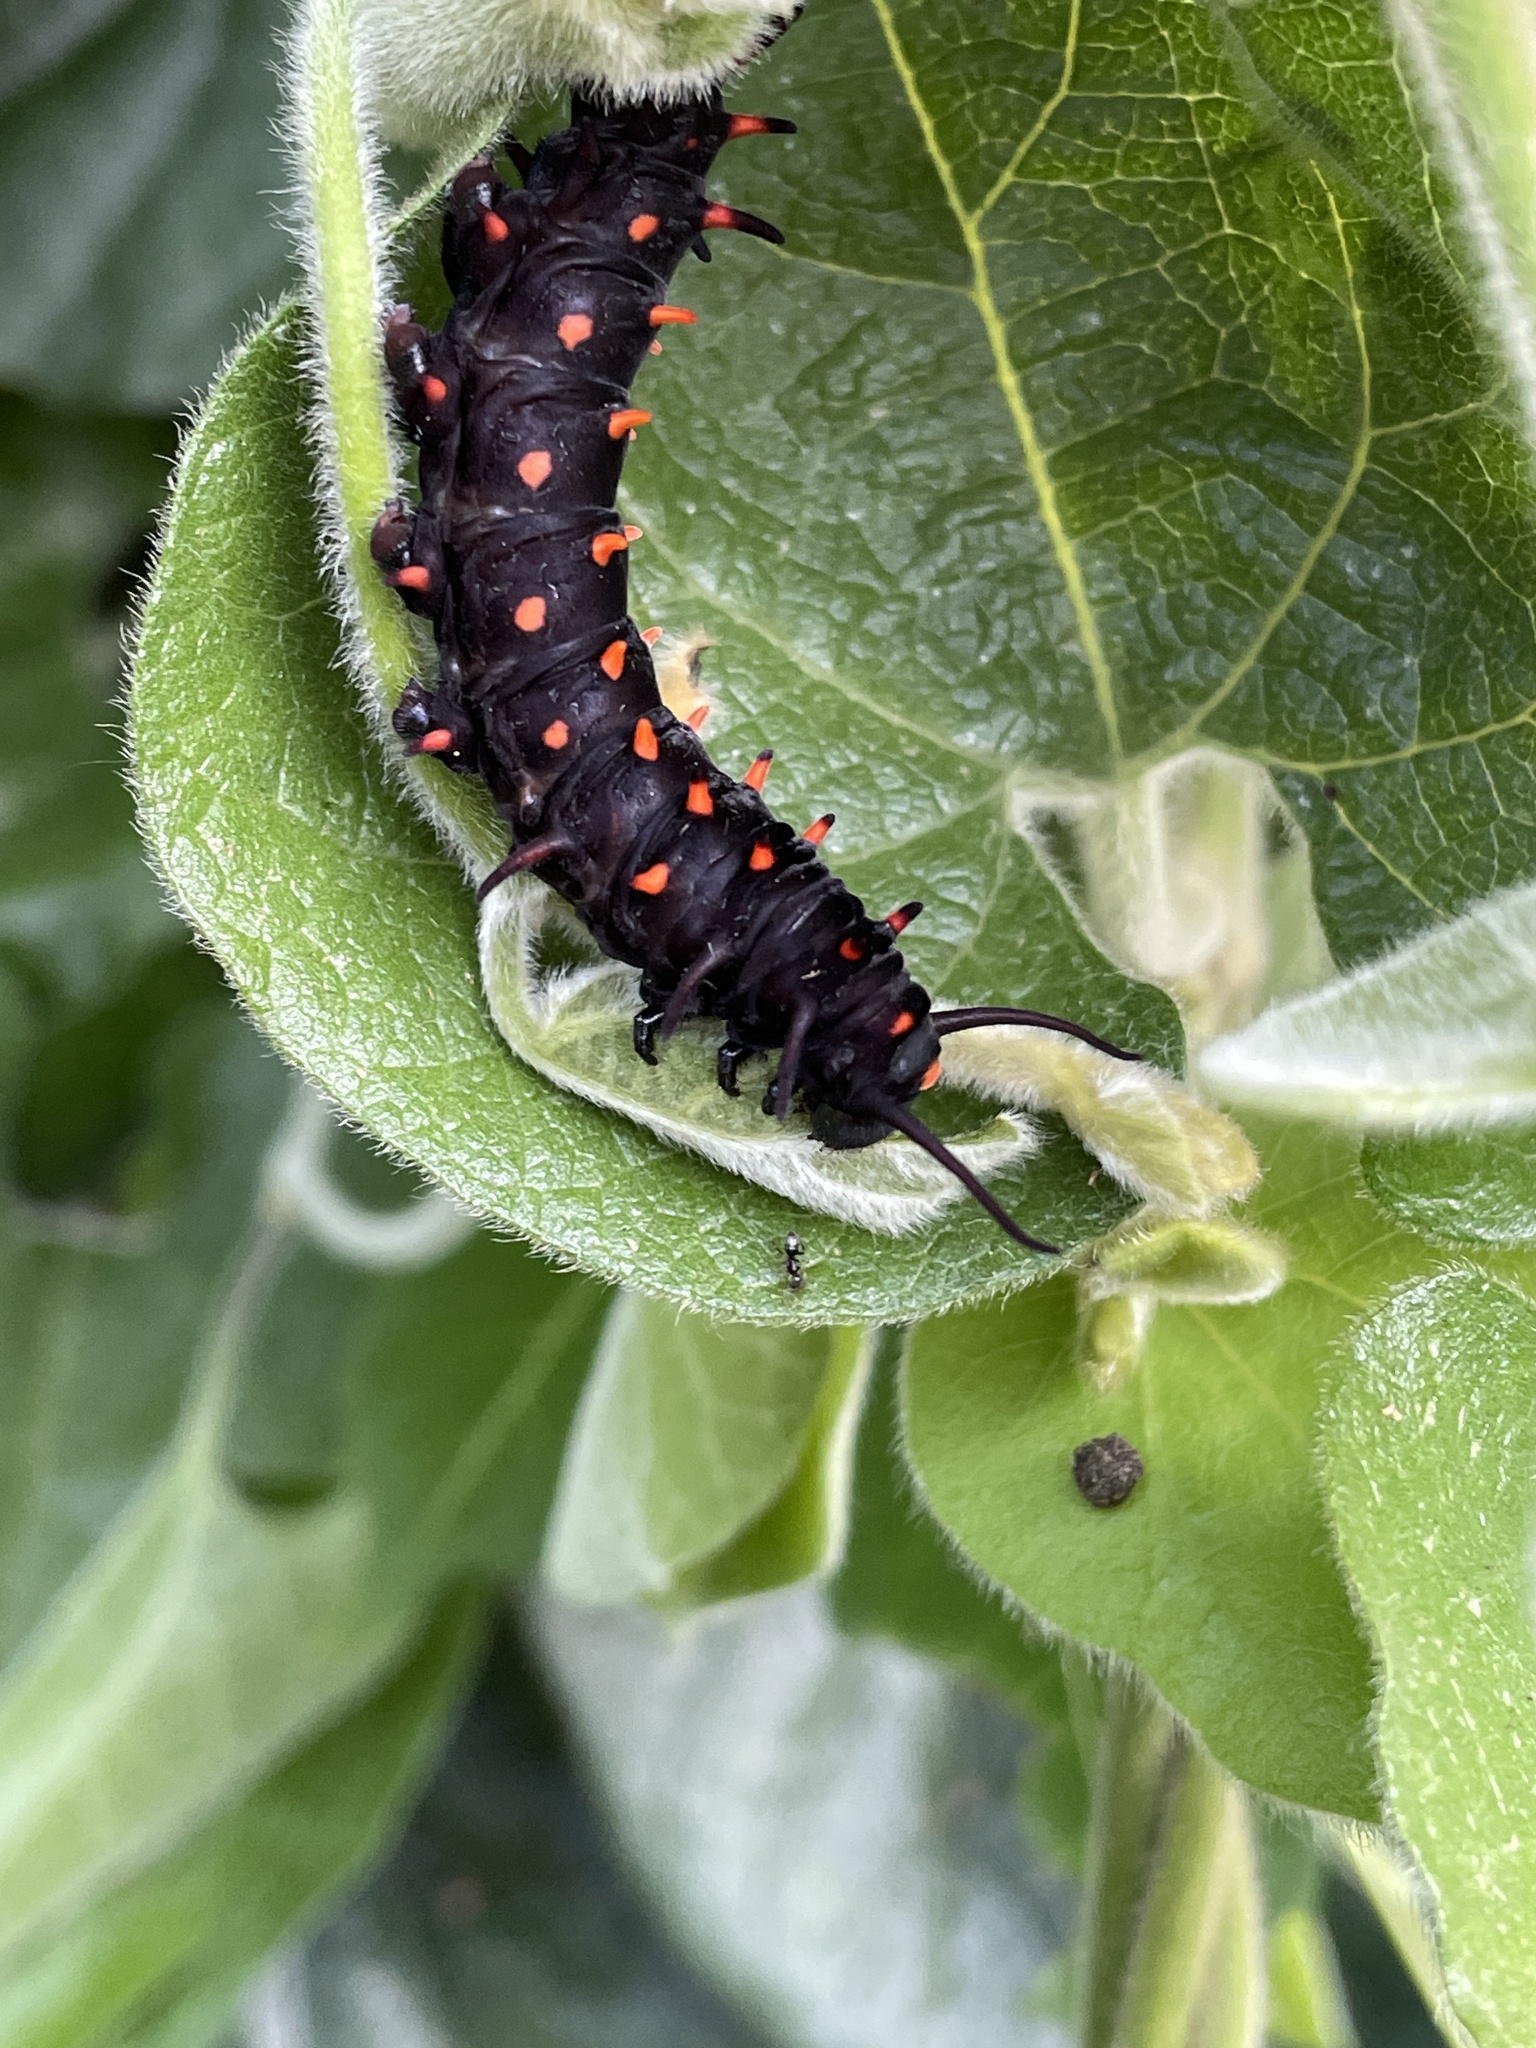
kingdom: Animalia
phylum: Arthropoda
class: Insecta
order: Lepidoptera
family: Papilionidae
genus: Battus
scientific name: Battus philenor
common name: Pipevine swallowtail
